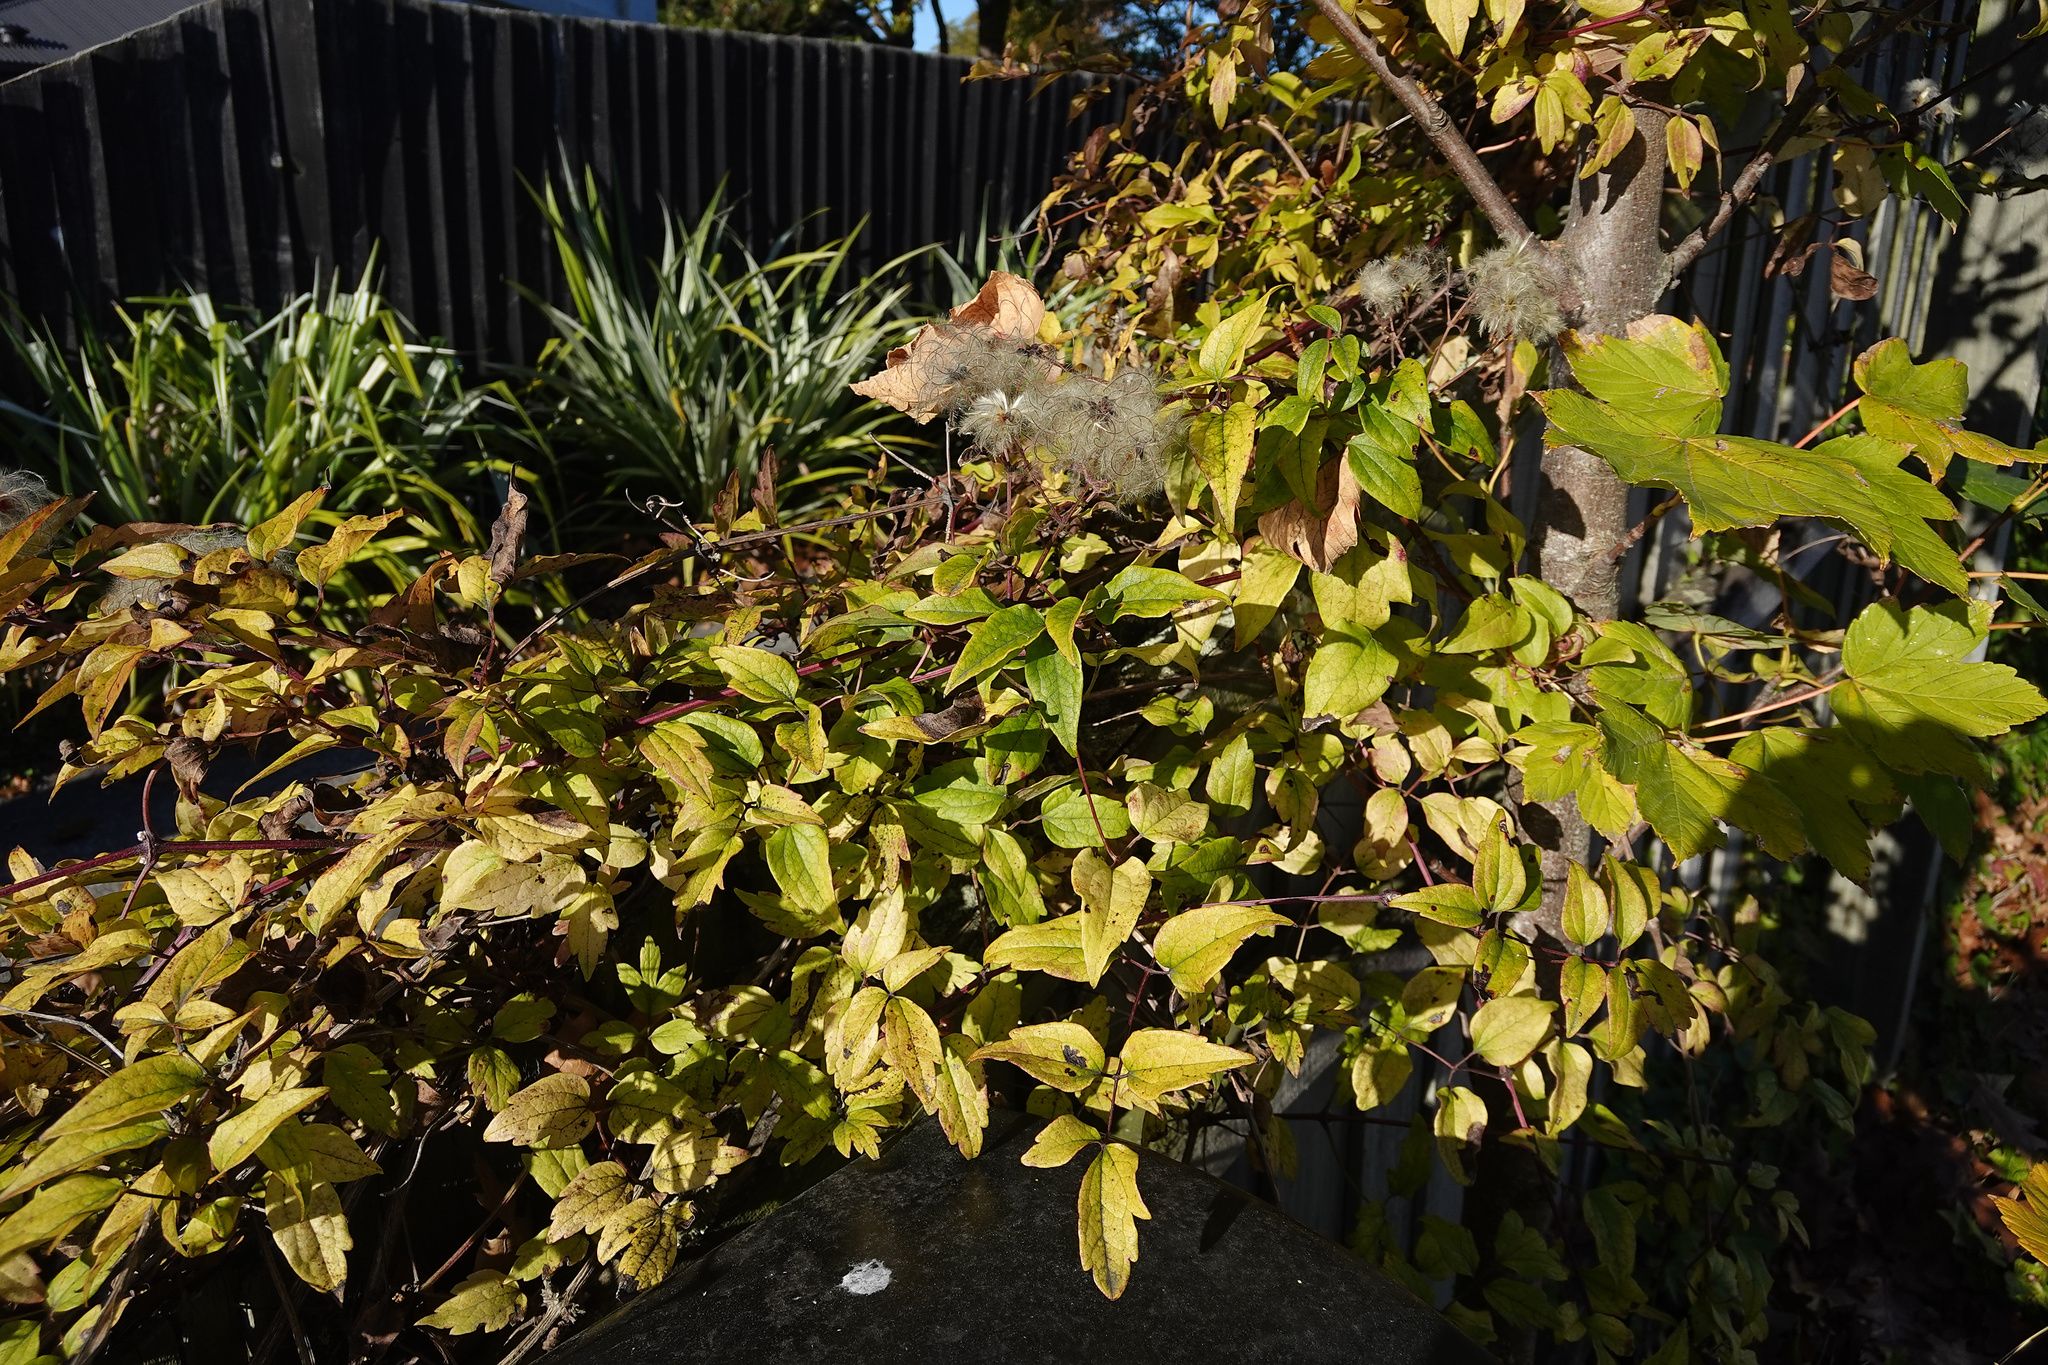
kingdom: Plantae
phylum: Tracheophyta
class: Magnoliopsida
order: Ranunculales
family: Ranunculaceae
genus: Clematis
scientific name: Clematis vitalba
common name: Evergreen clematis
